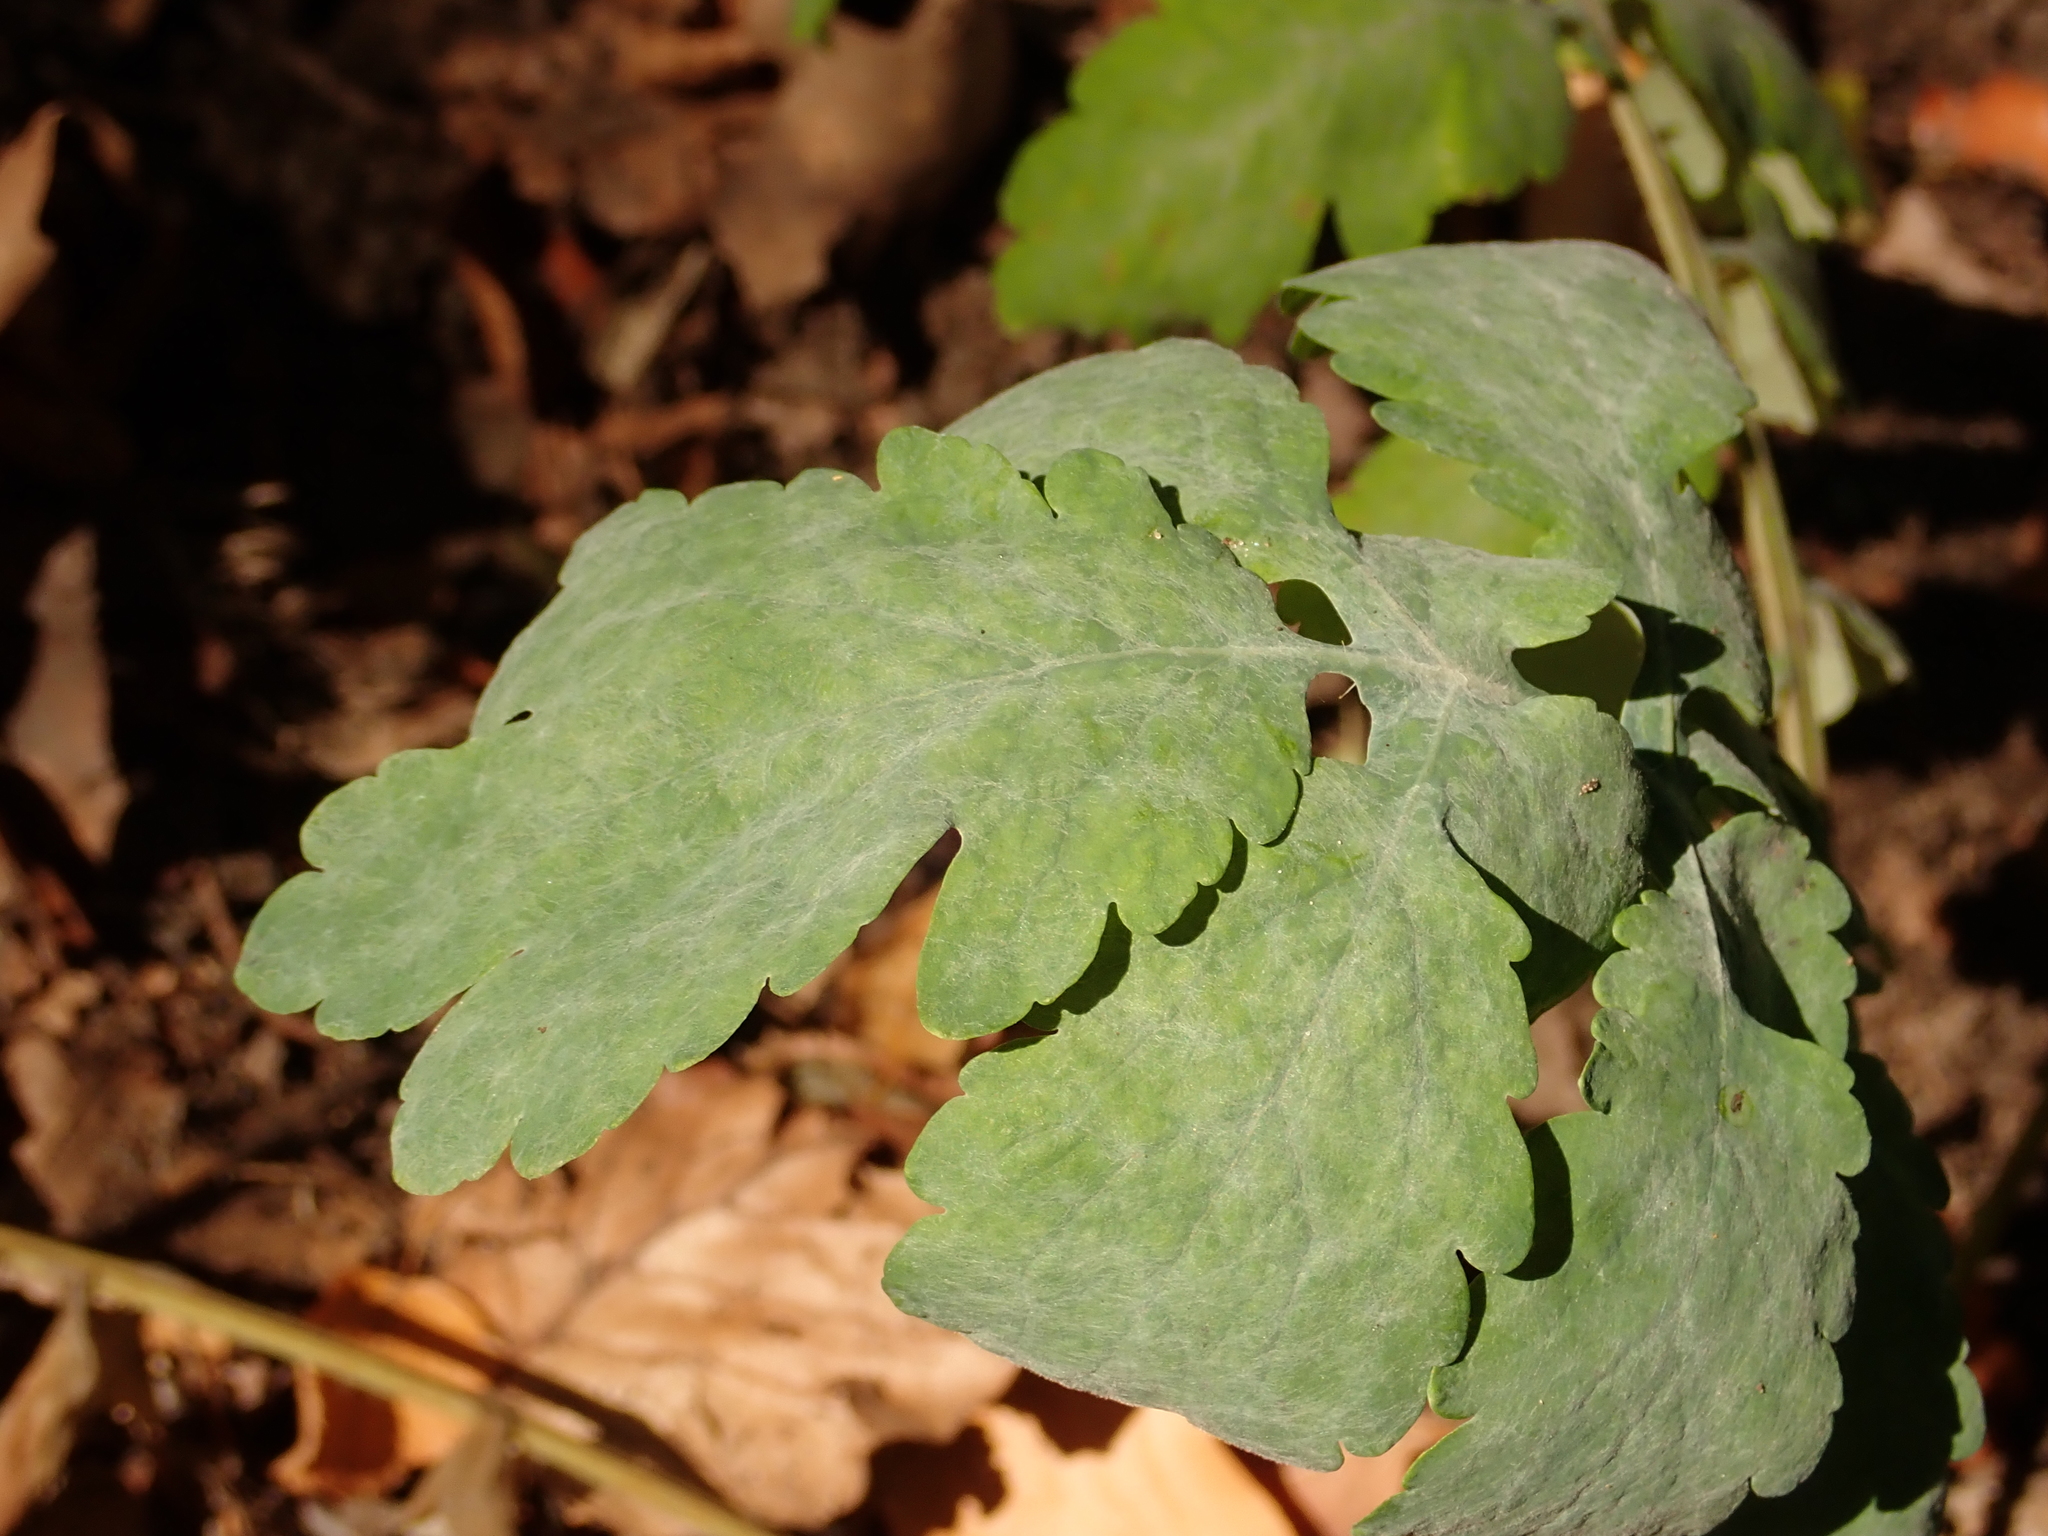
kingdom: Fungi
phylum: Ascomycota
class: Leotiomycetes
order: Helotiales
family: Erysiphaceae
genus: Erysiphe
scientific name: Erysiphe macleayae
